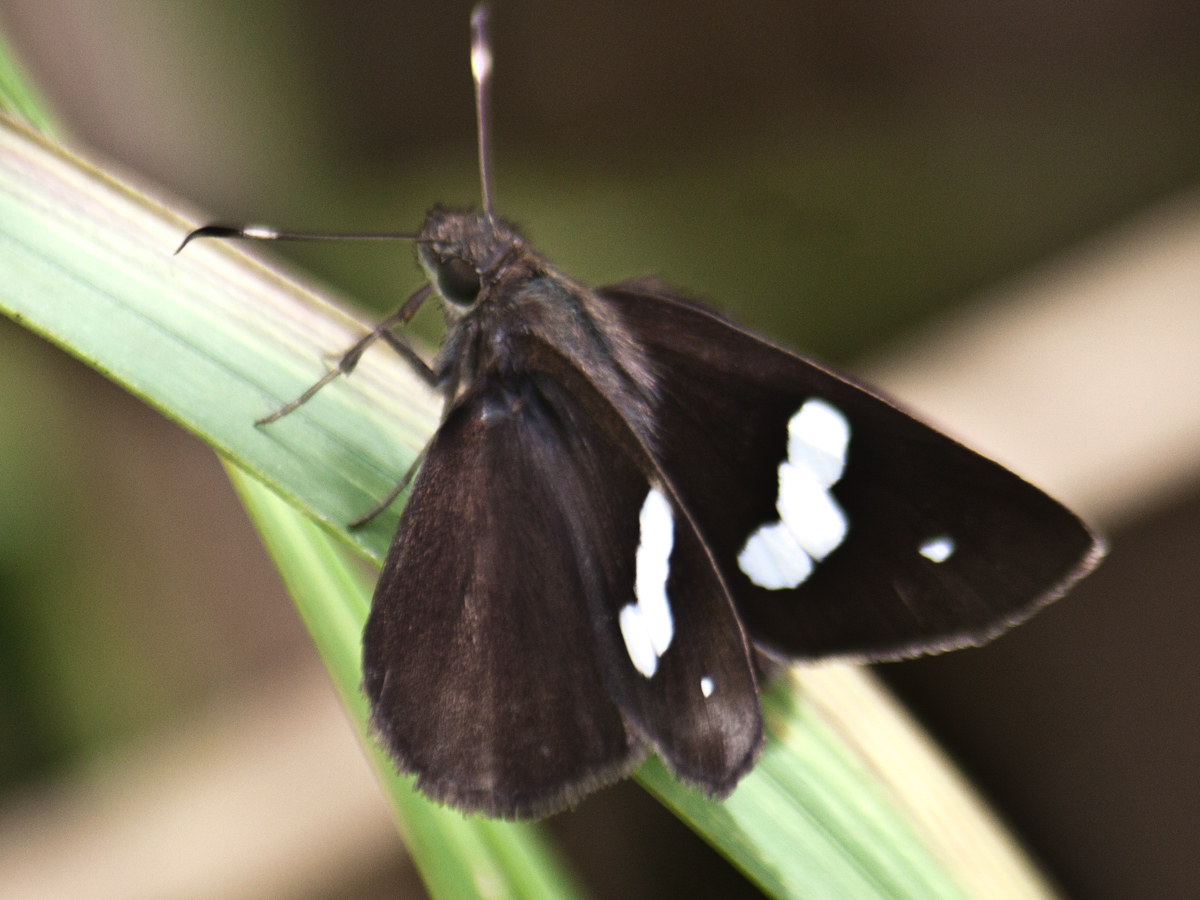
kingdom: Animalia
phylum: Arthropoda
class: Insecta
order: Lepidoptera
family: Hesperiidae
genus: Notocrypta
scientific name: Notocrypta paralysos
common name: Common banded demon
